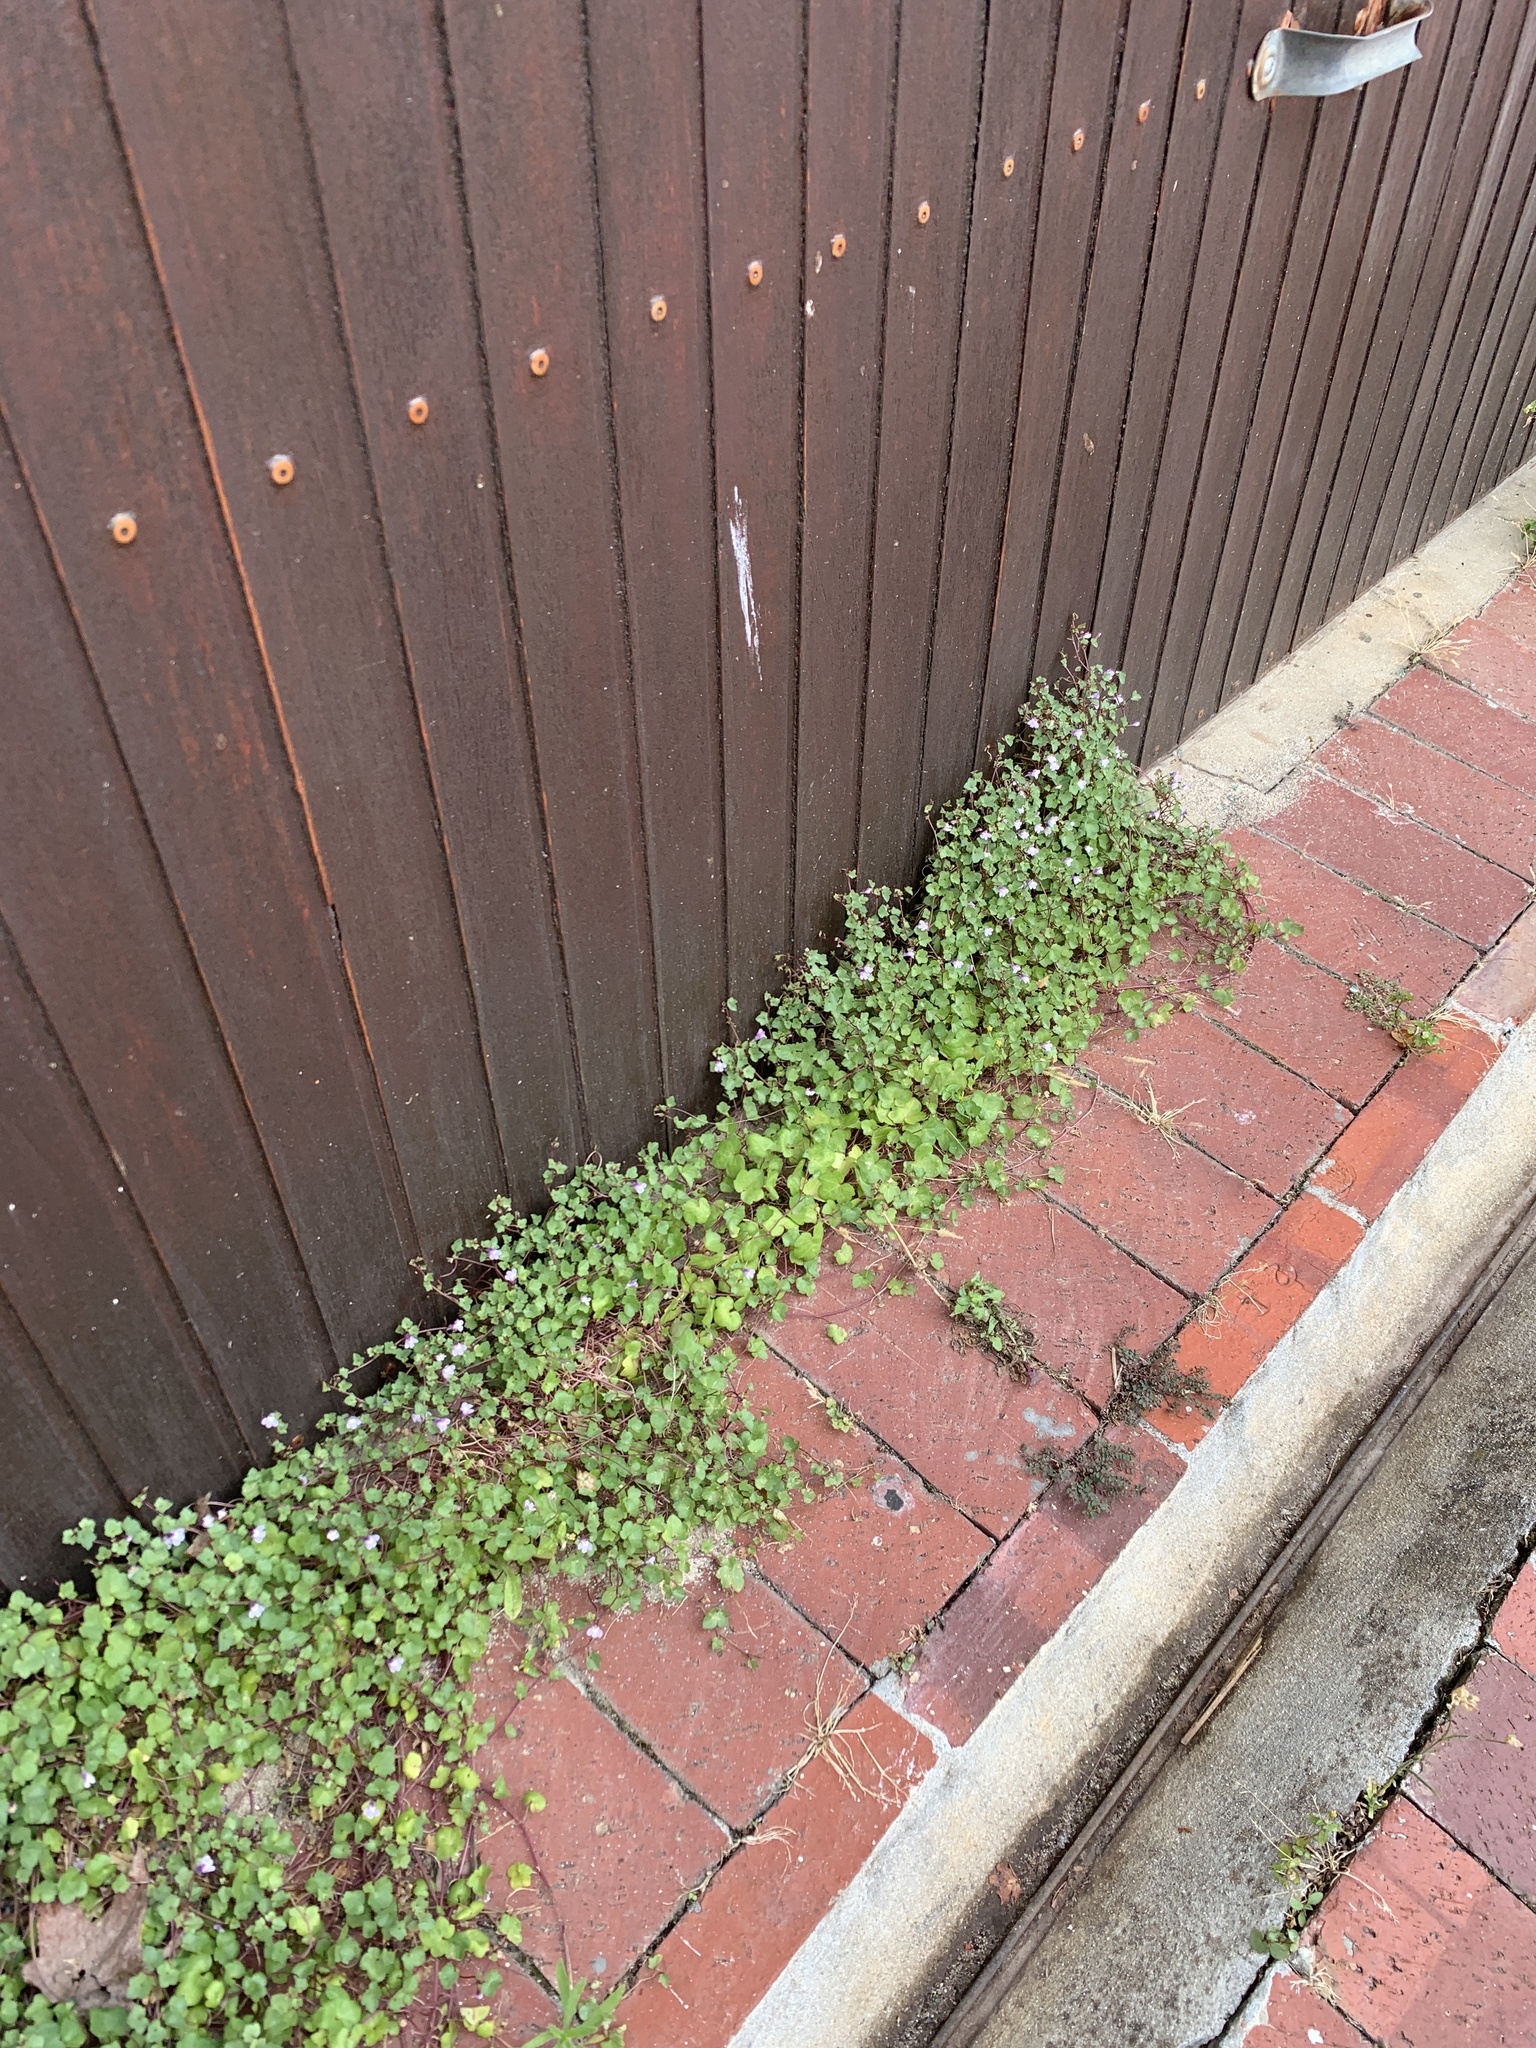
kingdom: Plantae
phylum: Tracheophyta
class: Magnoliopsida
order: Lamiales
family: Plantaginaceae
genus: Cymbalaria
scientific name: Cymbalaria muralis
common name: Ivy-leaved toadflax
